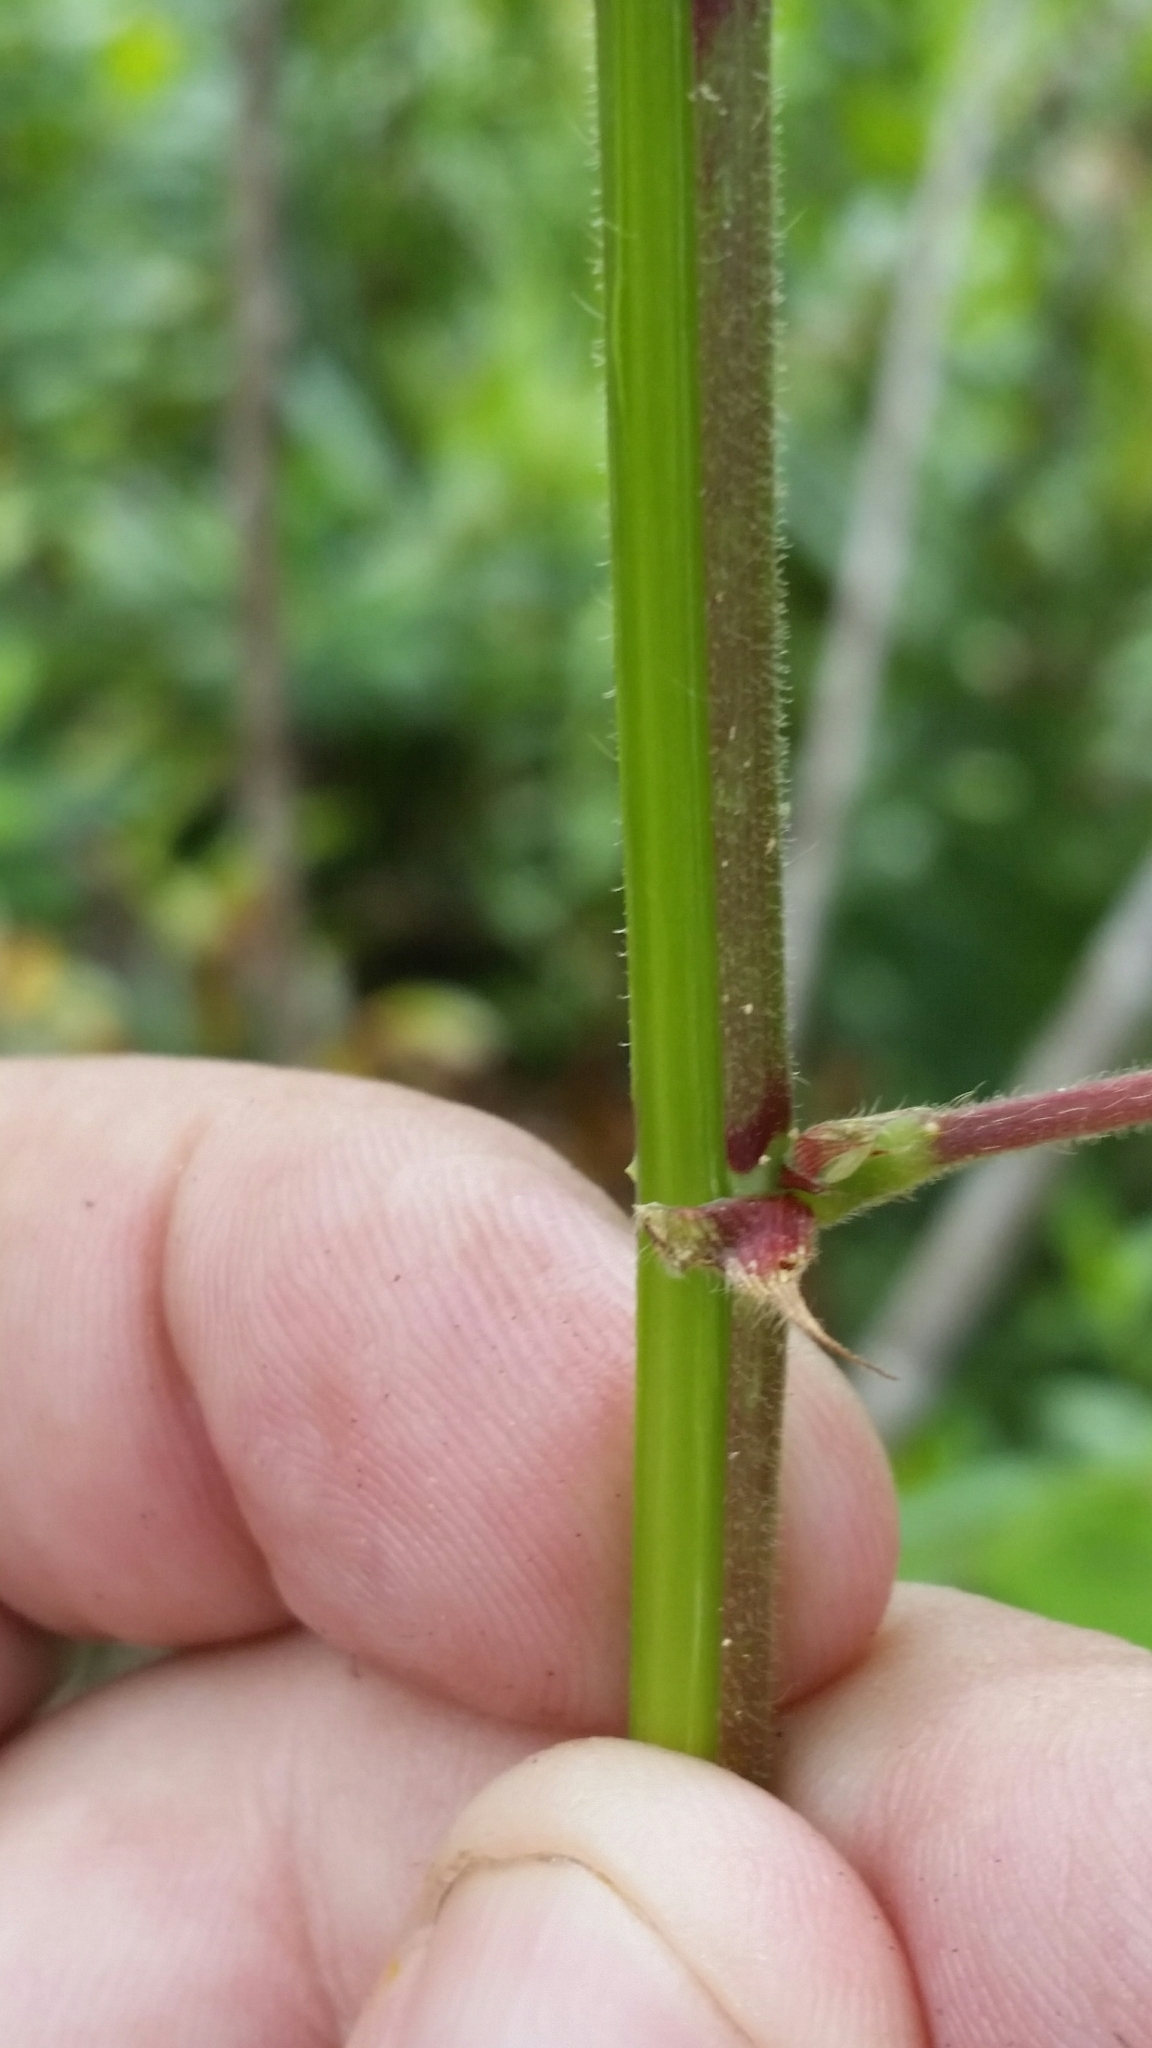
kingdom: Plantae
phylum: Tracheophyta
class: Magnoliopsida
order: Fabales
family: Fabaceae
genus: Desmodium
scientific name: Desmodium tortuosum
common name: Dixie ticktrefoil
